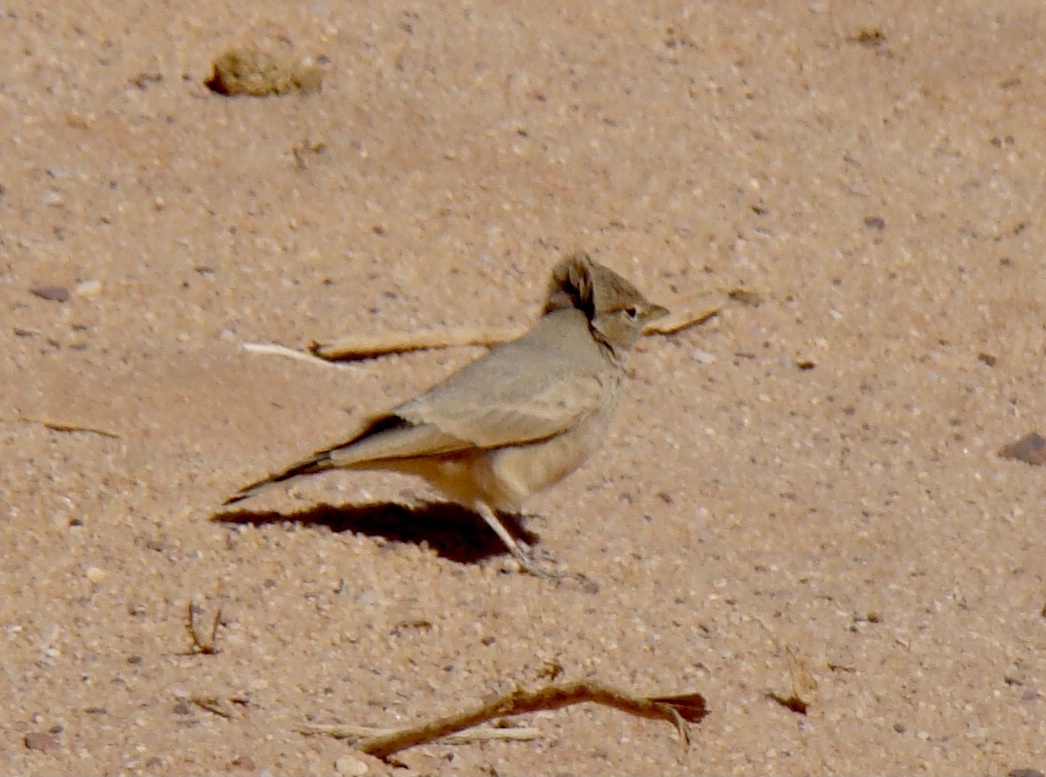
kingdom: Animalia
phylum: Chordata
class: Aves
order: Passeriformes
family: Alaudidae
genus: Ammomanes
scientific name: Ammomanes deserti
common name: Desert lark
